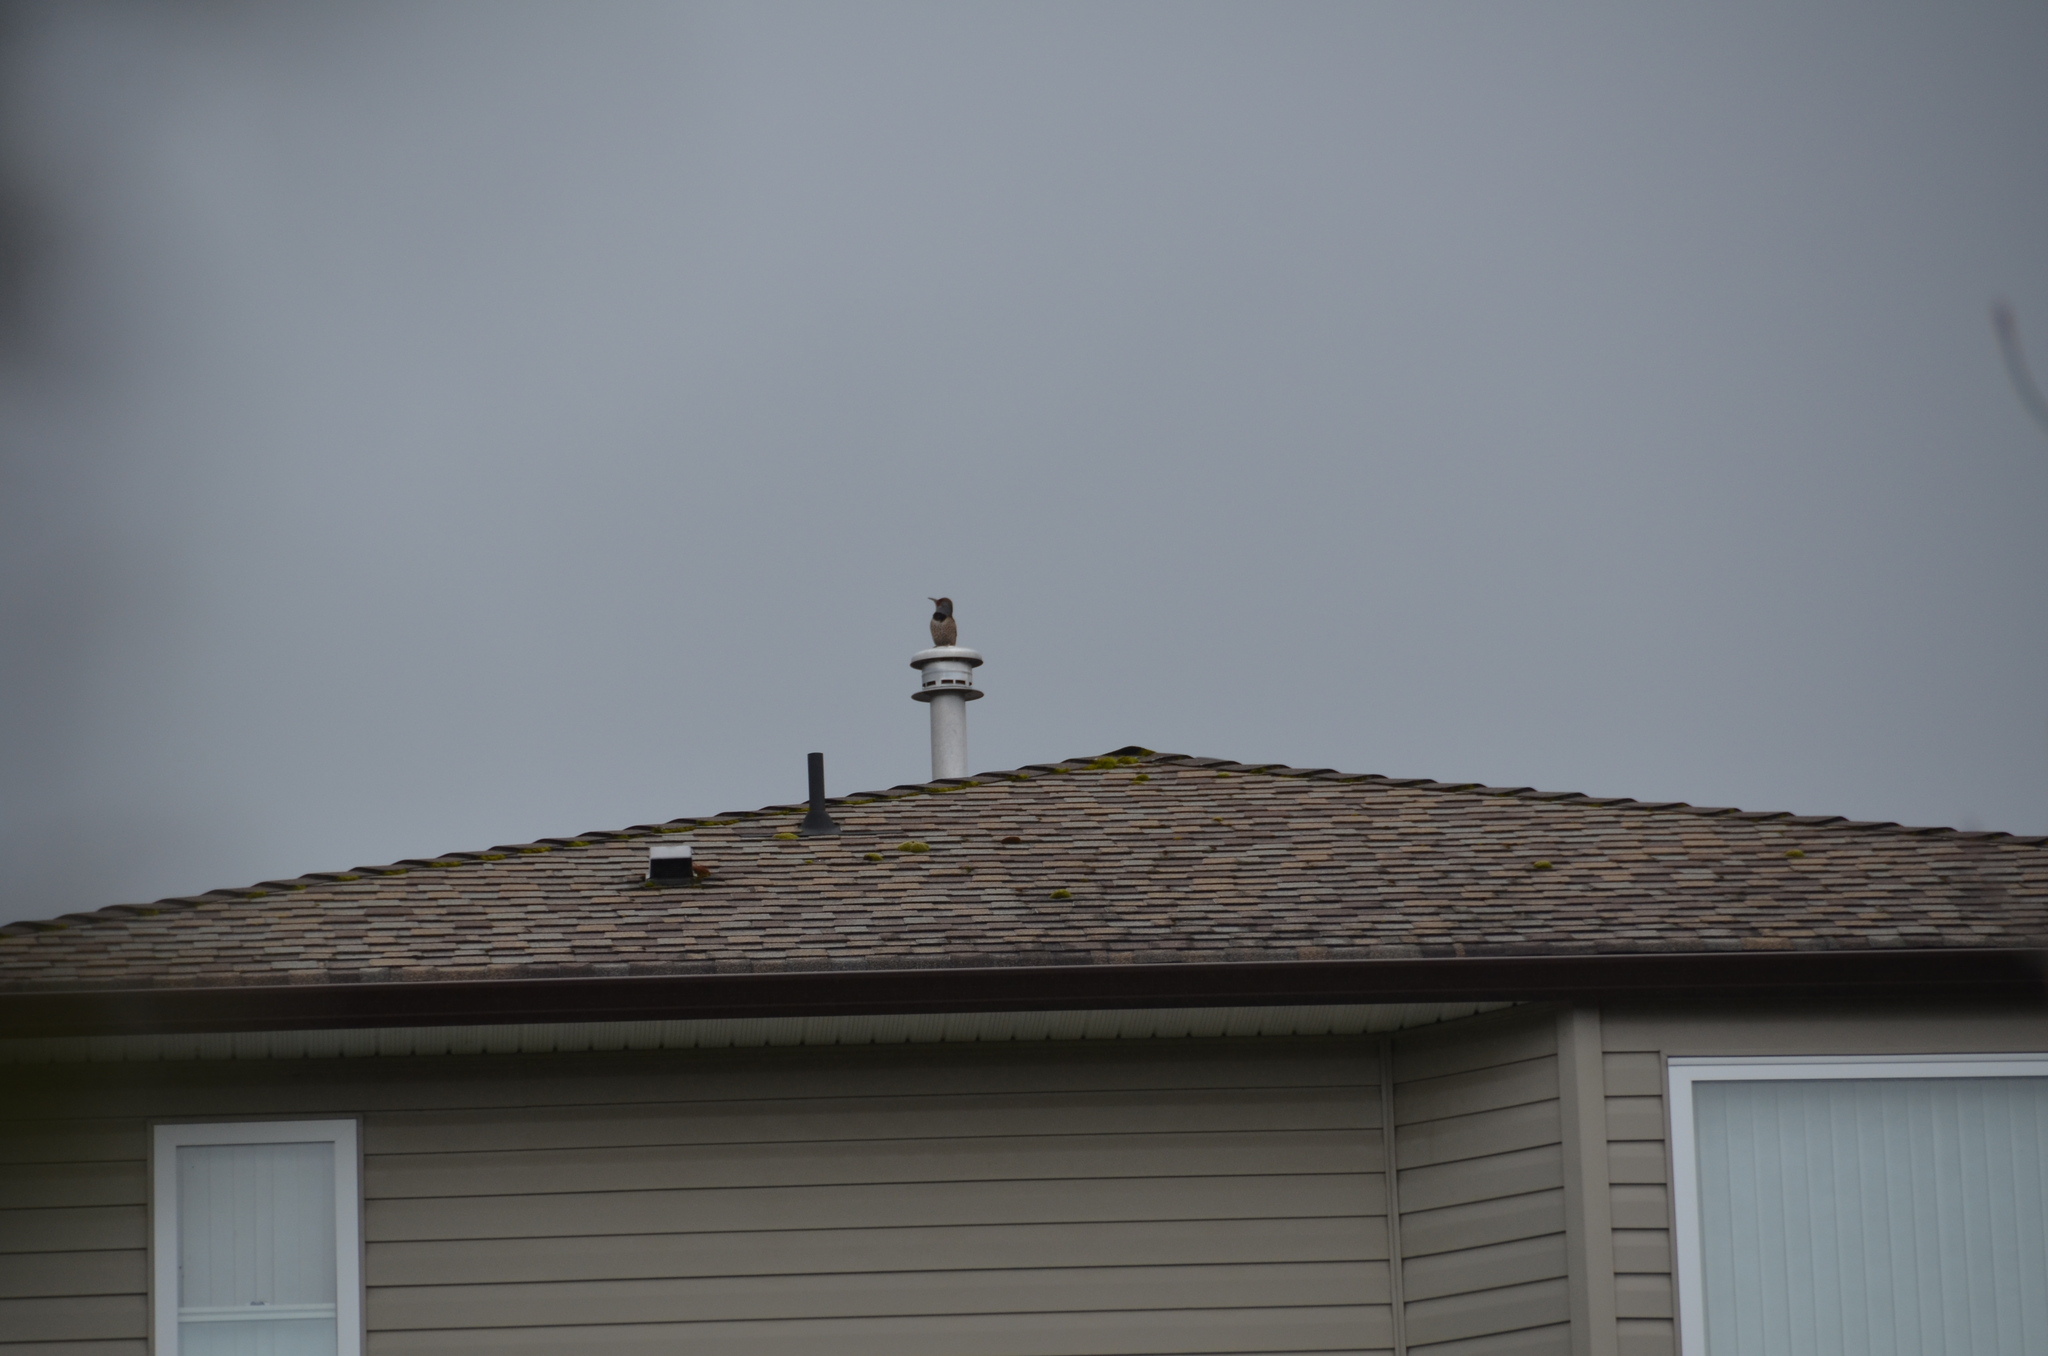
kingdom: Animalia
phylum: Chordata
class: Aves
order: Piciformes
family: Picidae
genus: Colaptes
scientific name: Colaptes auratus
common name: Northern flicker
